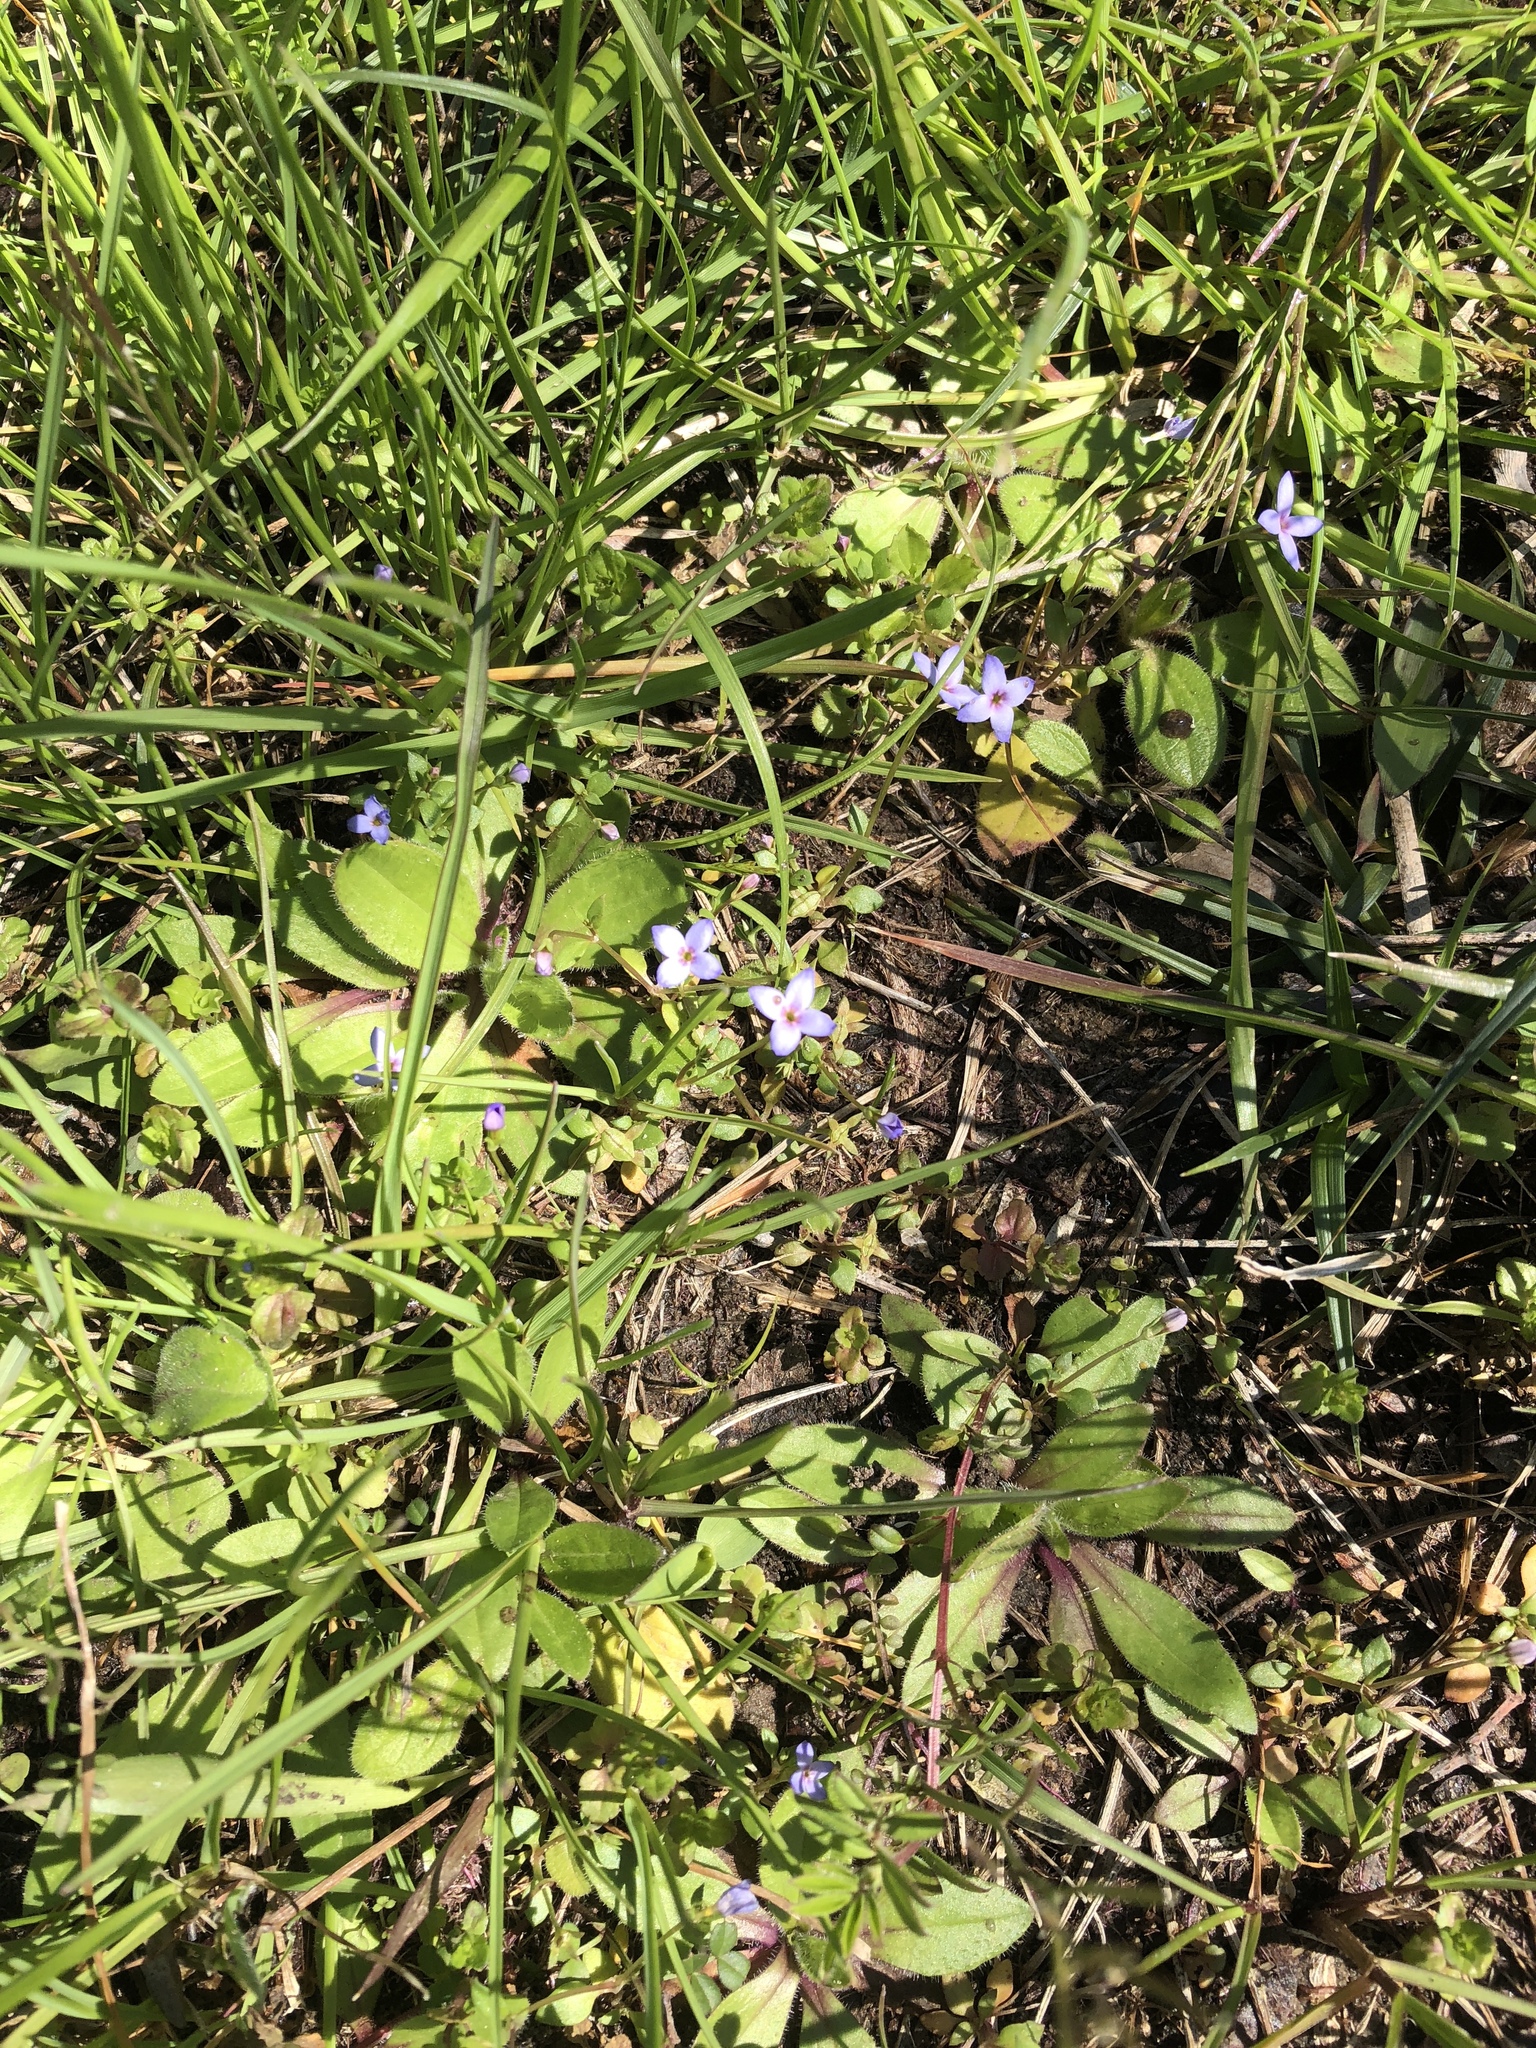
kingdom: Plantae
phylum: Tracheophyta
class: Magnoliopsida
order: Gentianales
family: Rubiaceae
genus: Houstonia
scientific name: Houstonia pusilla
